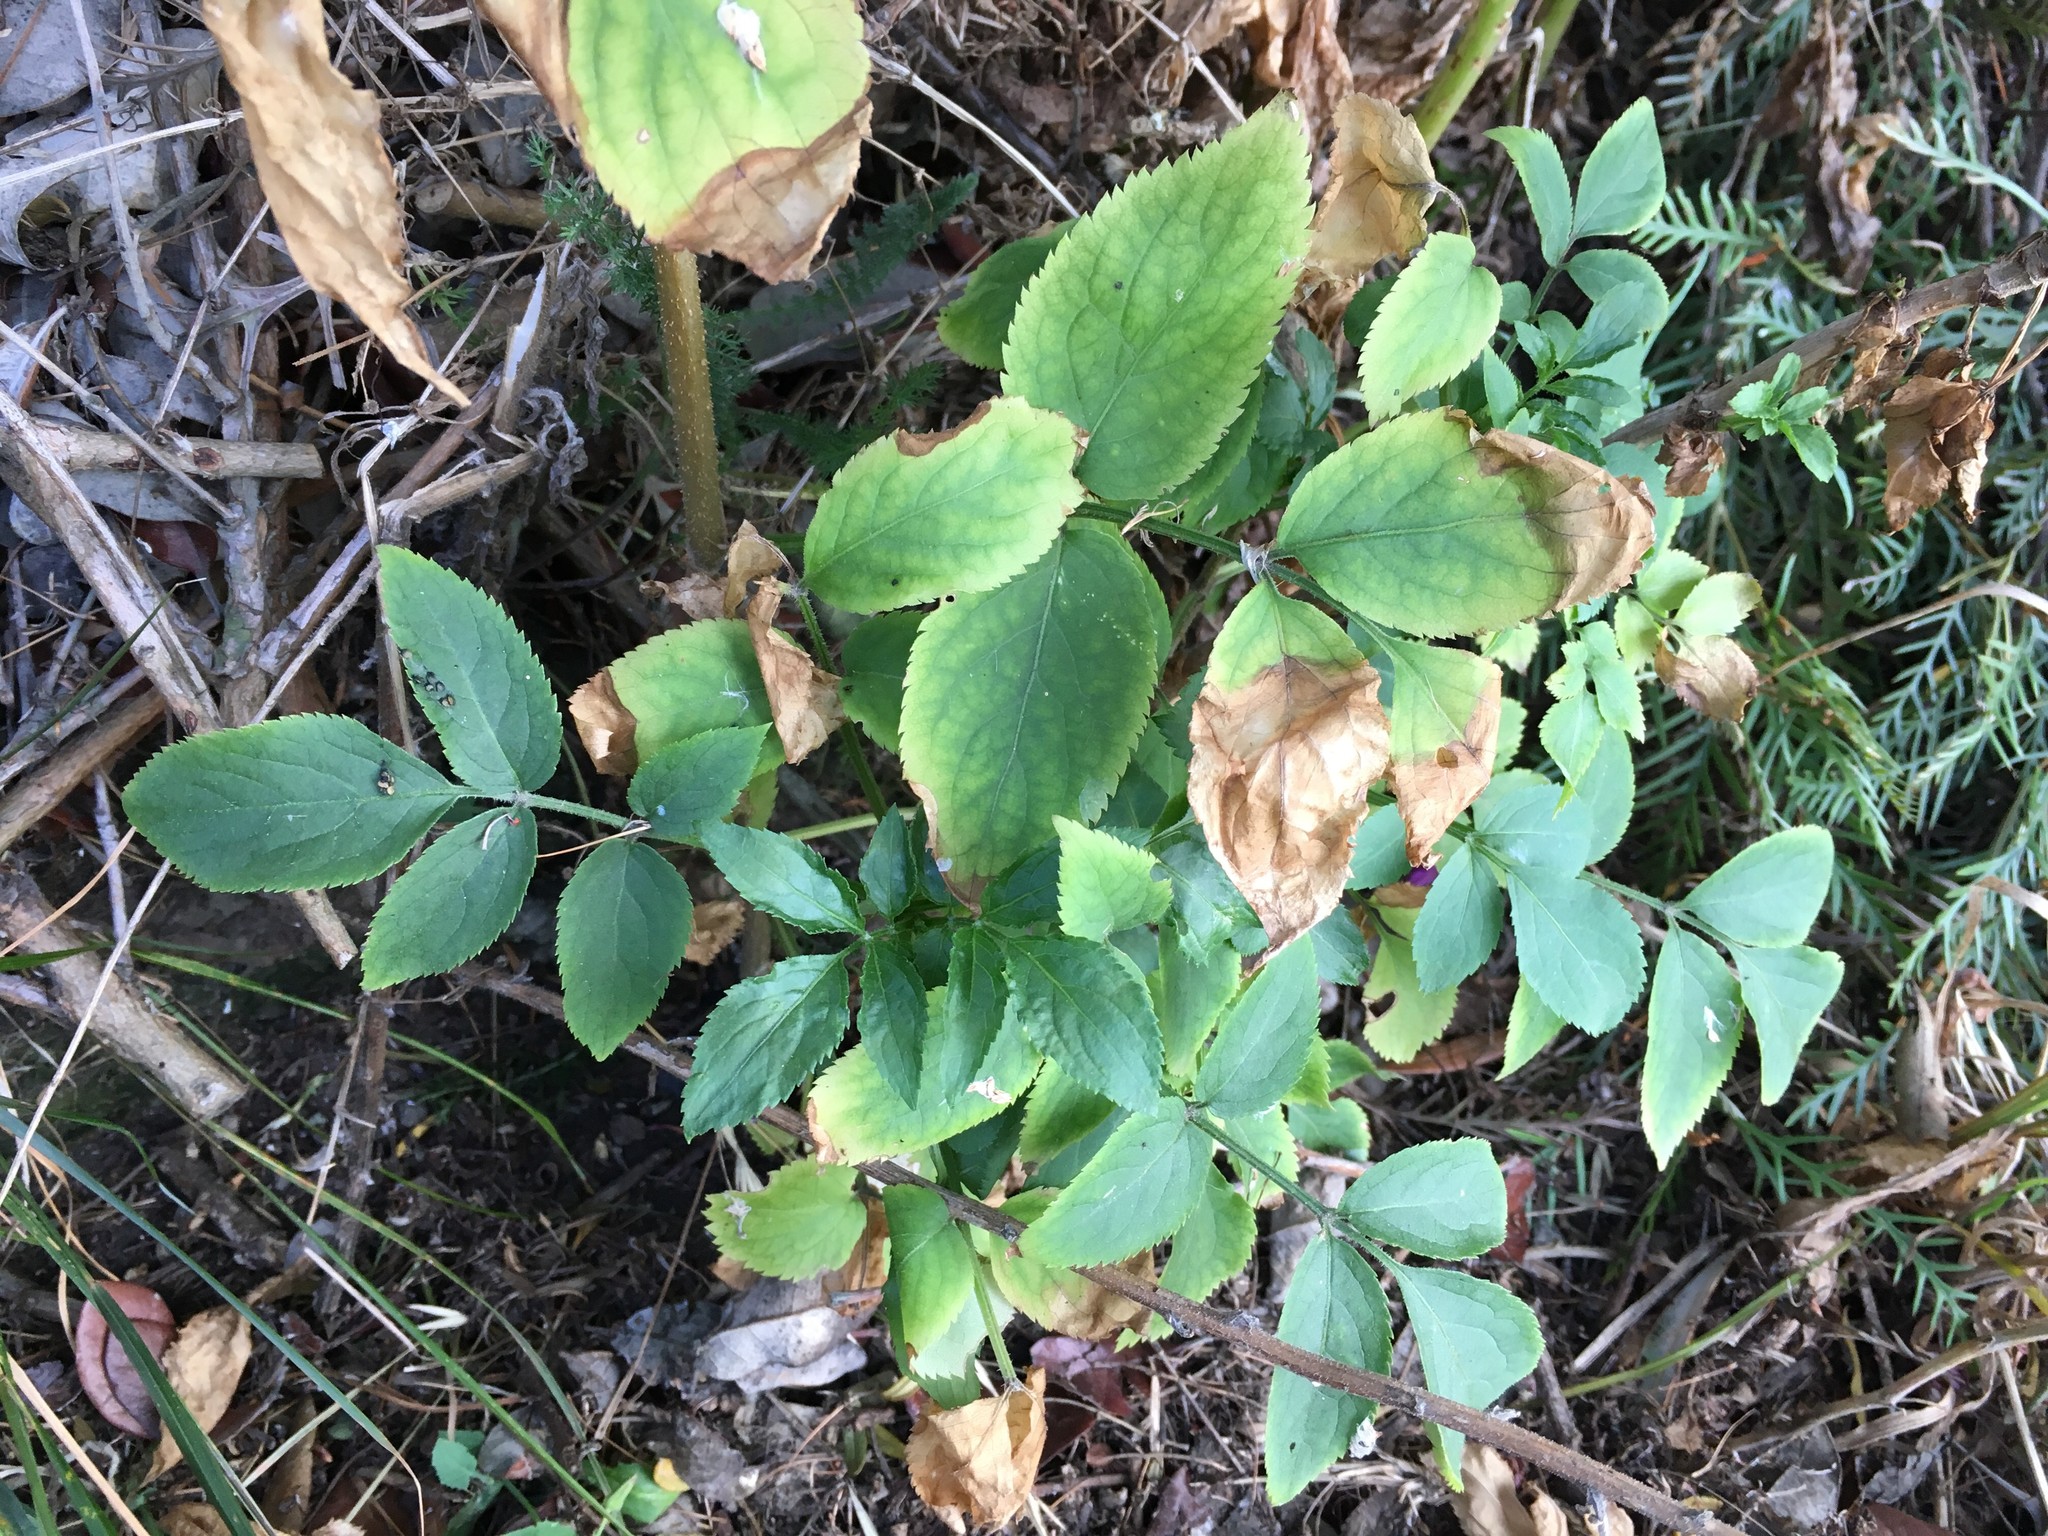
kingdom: Plantae
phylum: Tracheophyta
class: Magnoliopsida
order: Dipsacales
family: Viburnaceae
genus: Sambucus
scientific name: Sambucus nigra
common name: Elder
